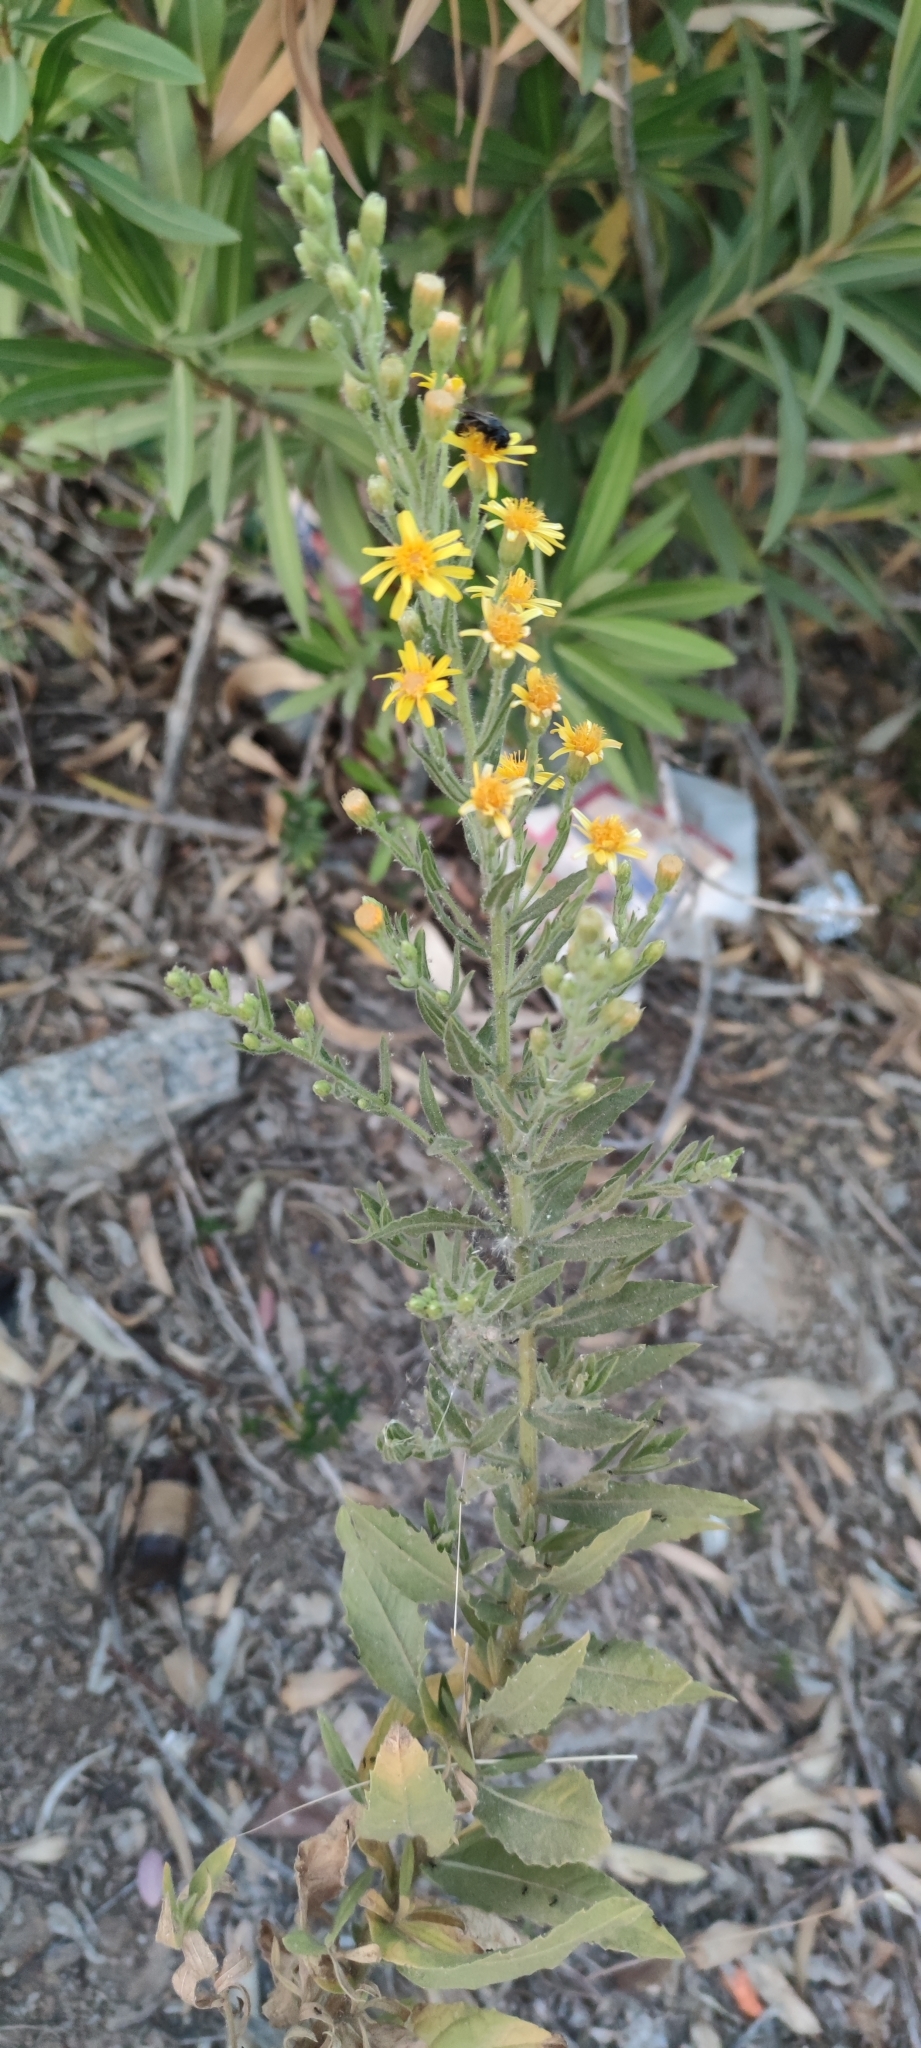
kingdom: Plantae
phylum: Tracheophyta
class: Magnoliopsida
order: Asterales
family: Asteraceae
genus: Dittrichia
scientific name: Dittrichia viscosa
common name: Woody fleabane
